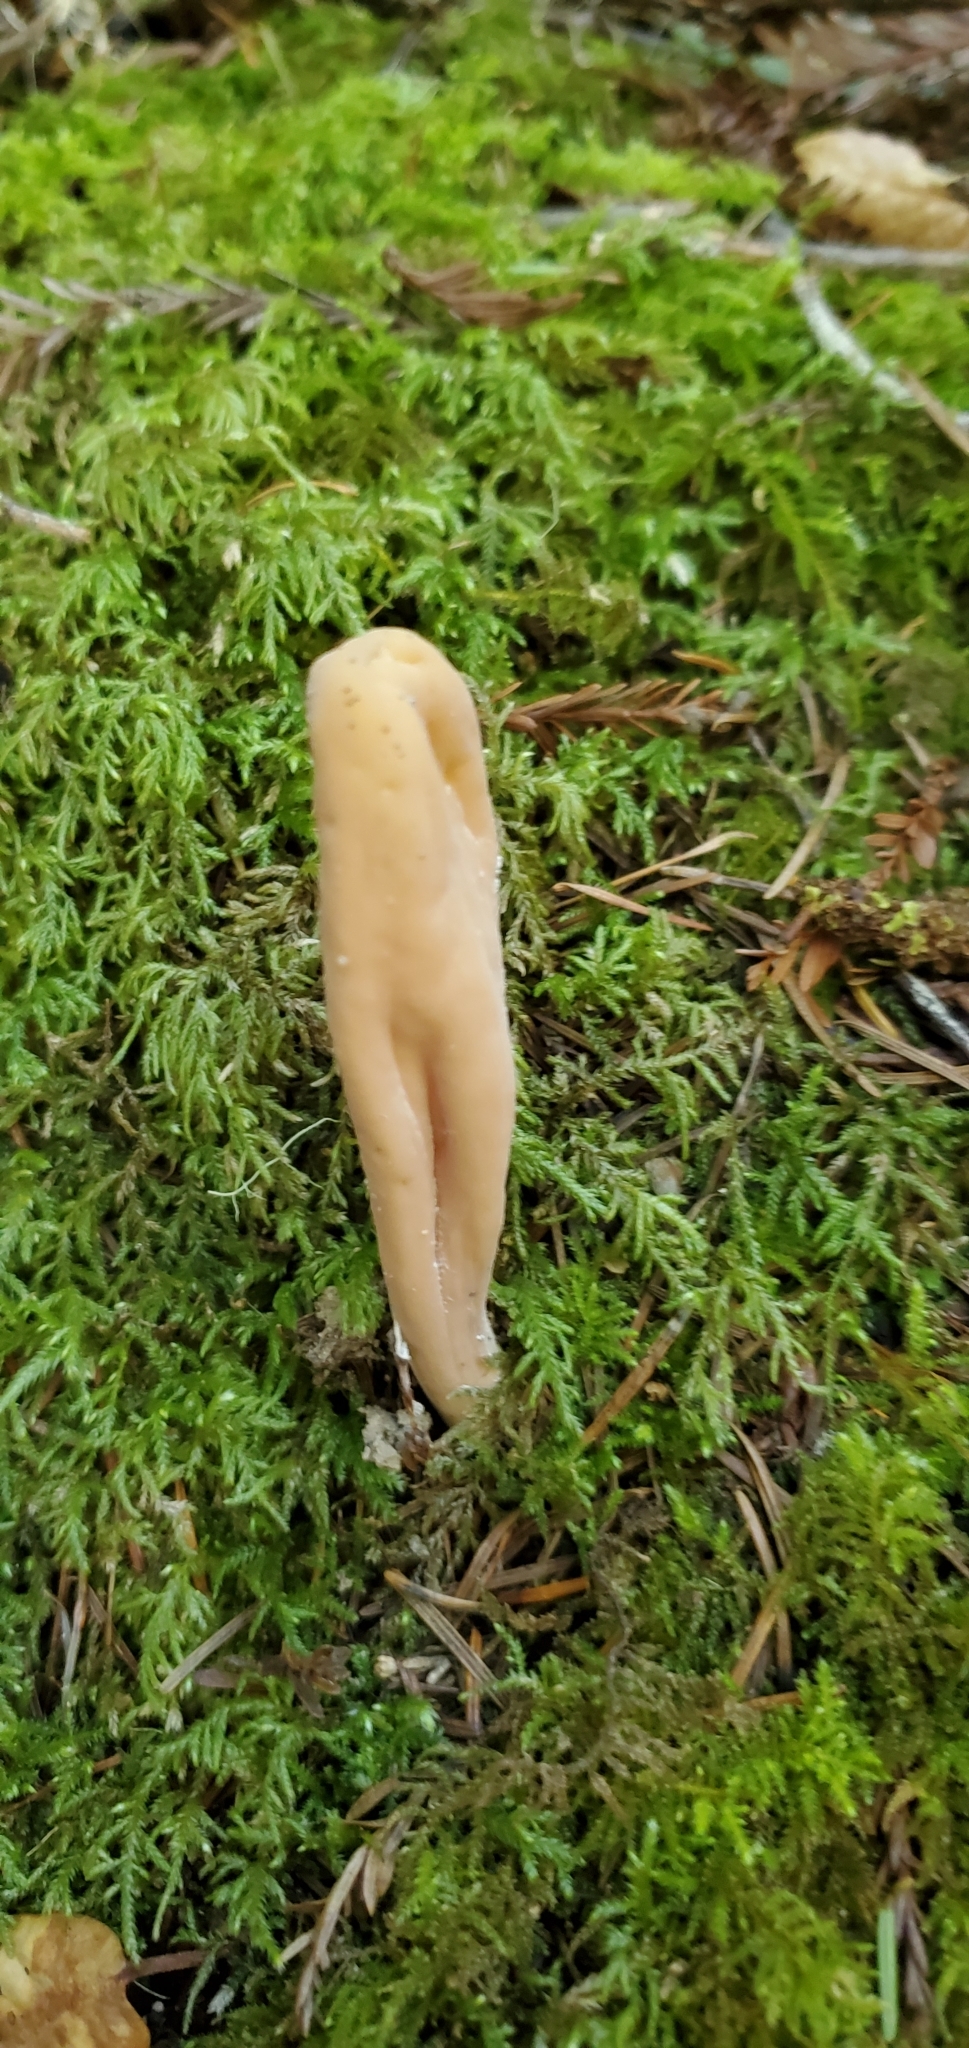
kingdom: Fungi
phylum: Basidiomycota
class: Agaricomycetes
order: Gomphales
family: Clavariadelphaceae
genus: Clavariadelphus
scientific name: Clavariadelphus occidentalis
